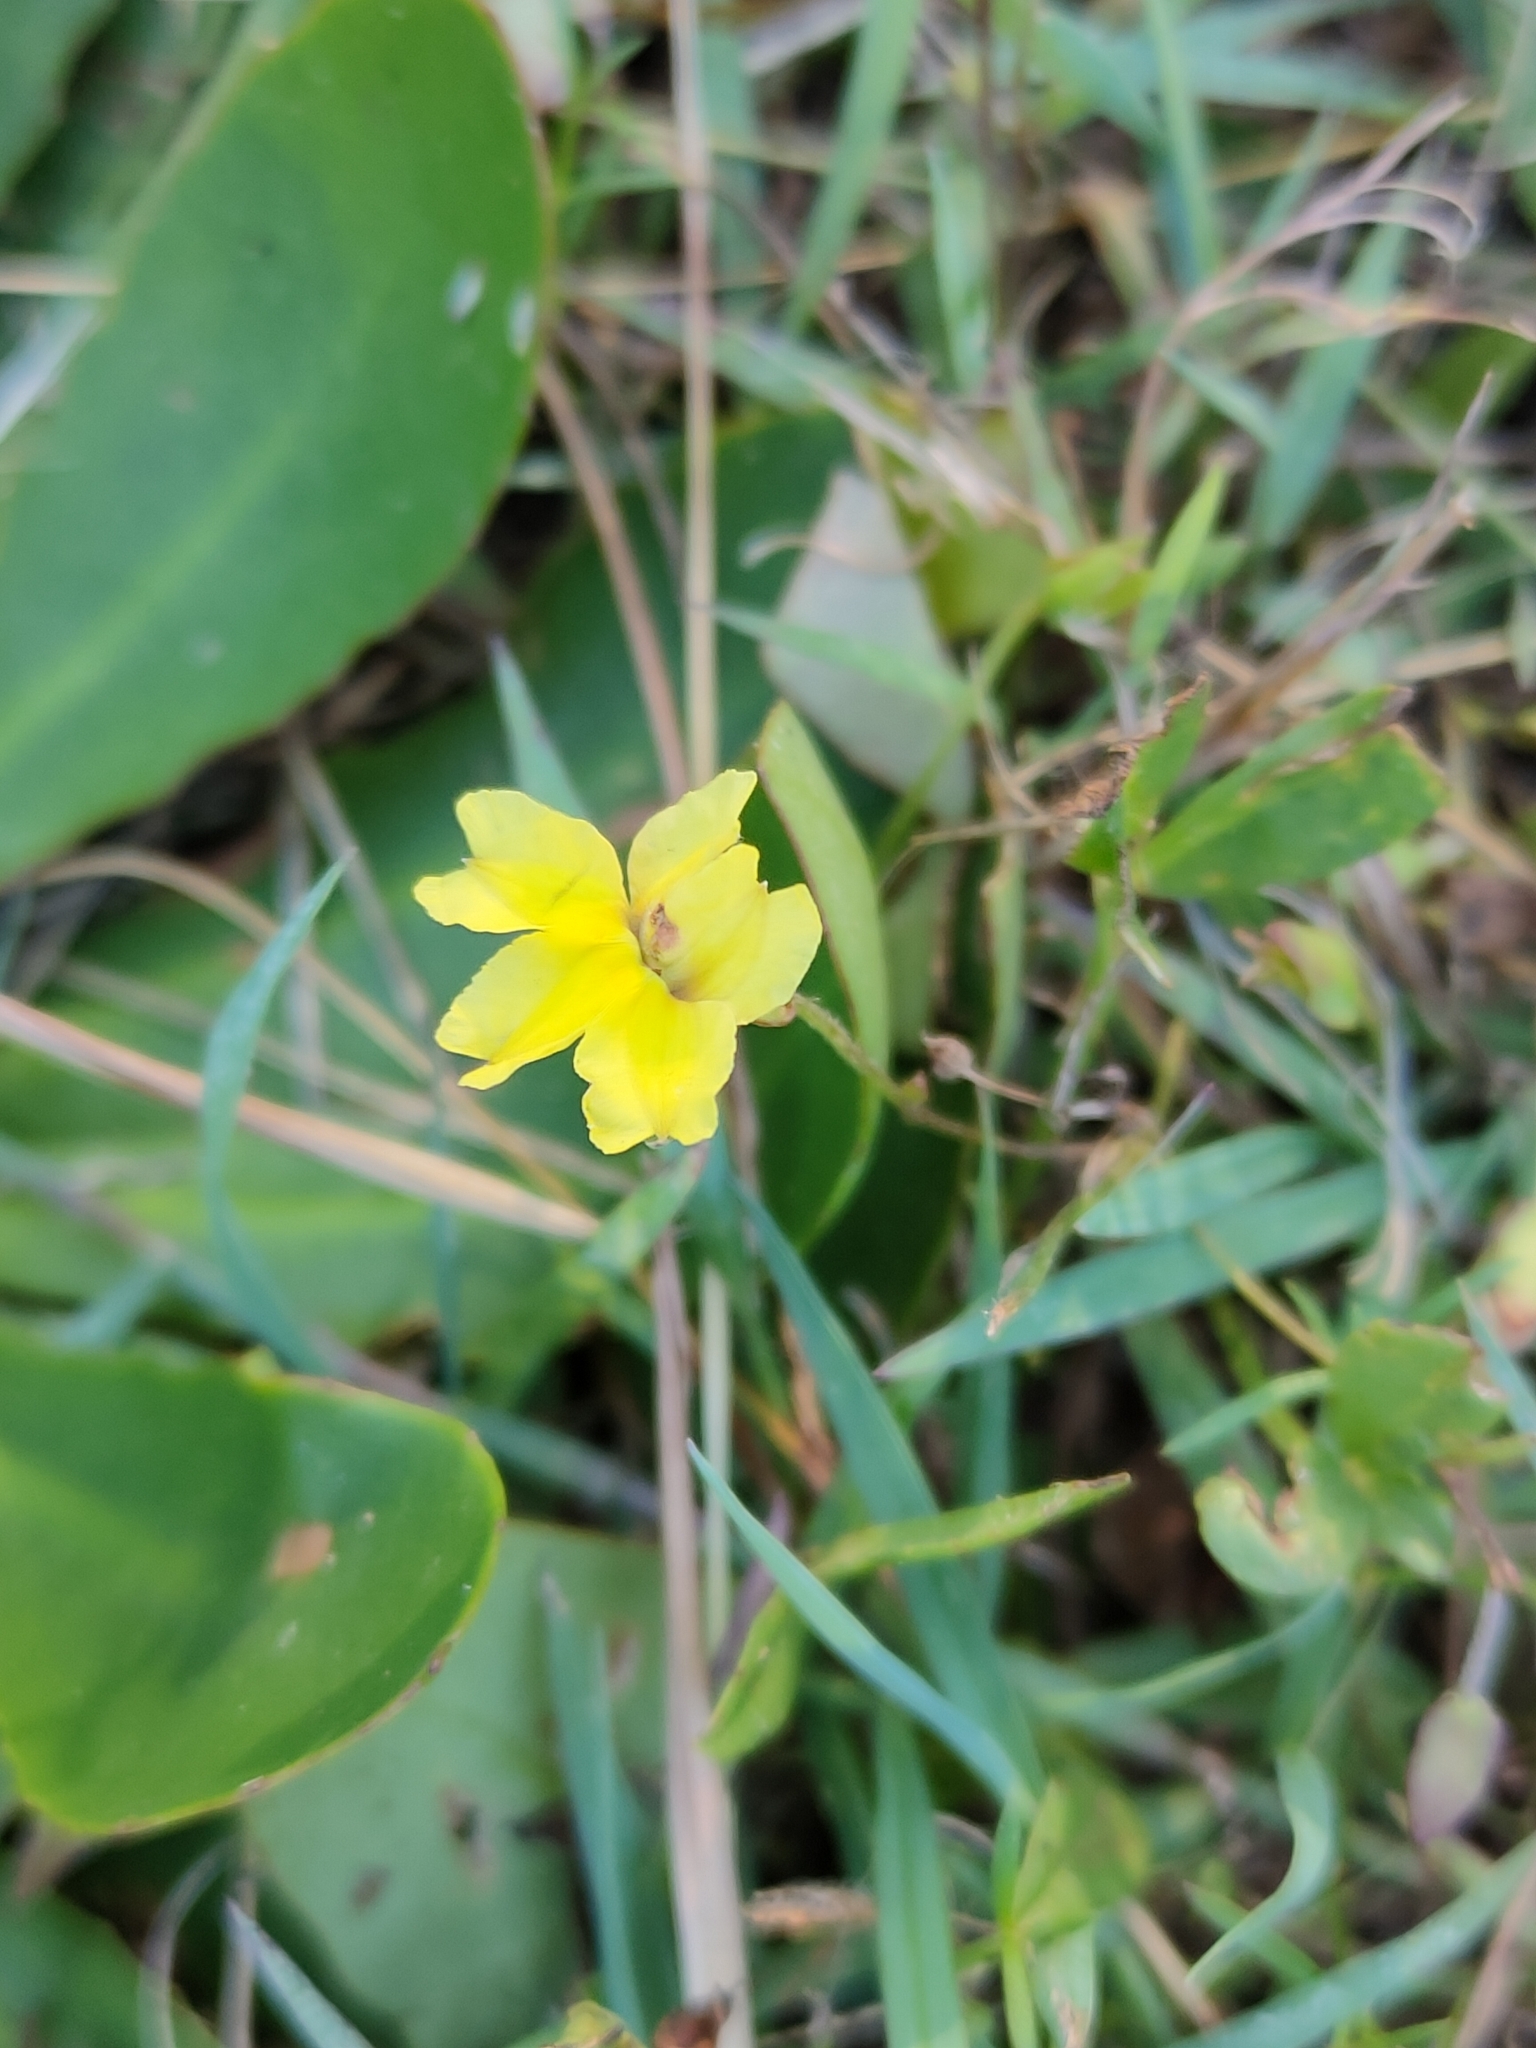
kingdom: Plantae
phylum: Tracheophyta
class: Magnoliopsida
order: Asterales
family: Goodeniaceae
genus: Goodenia
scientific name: Goodenia mystrophylla
